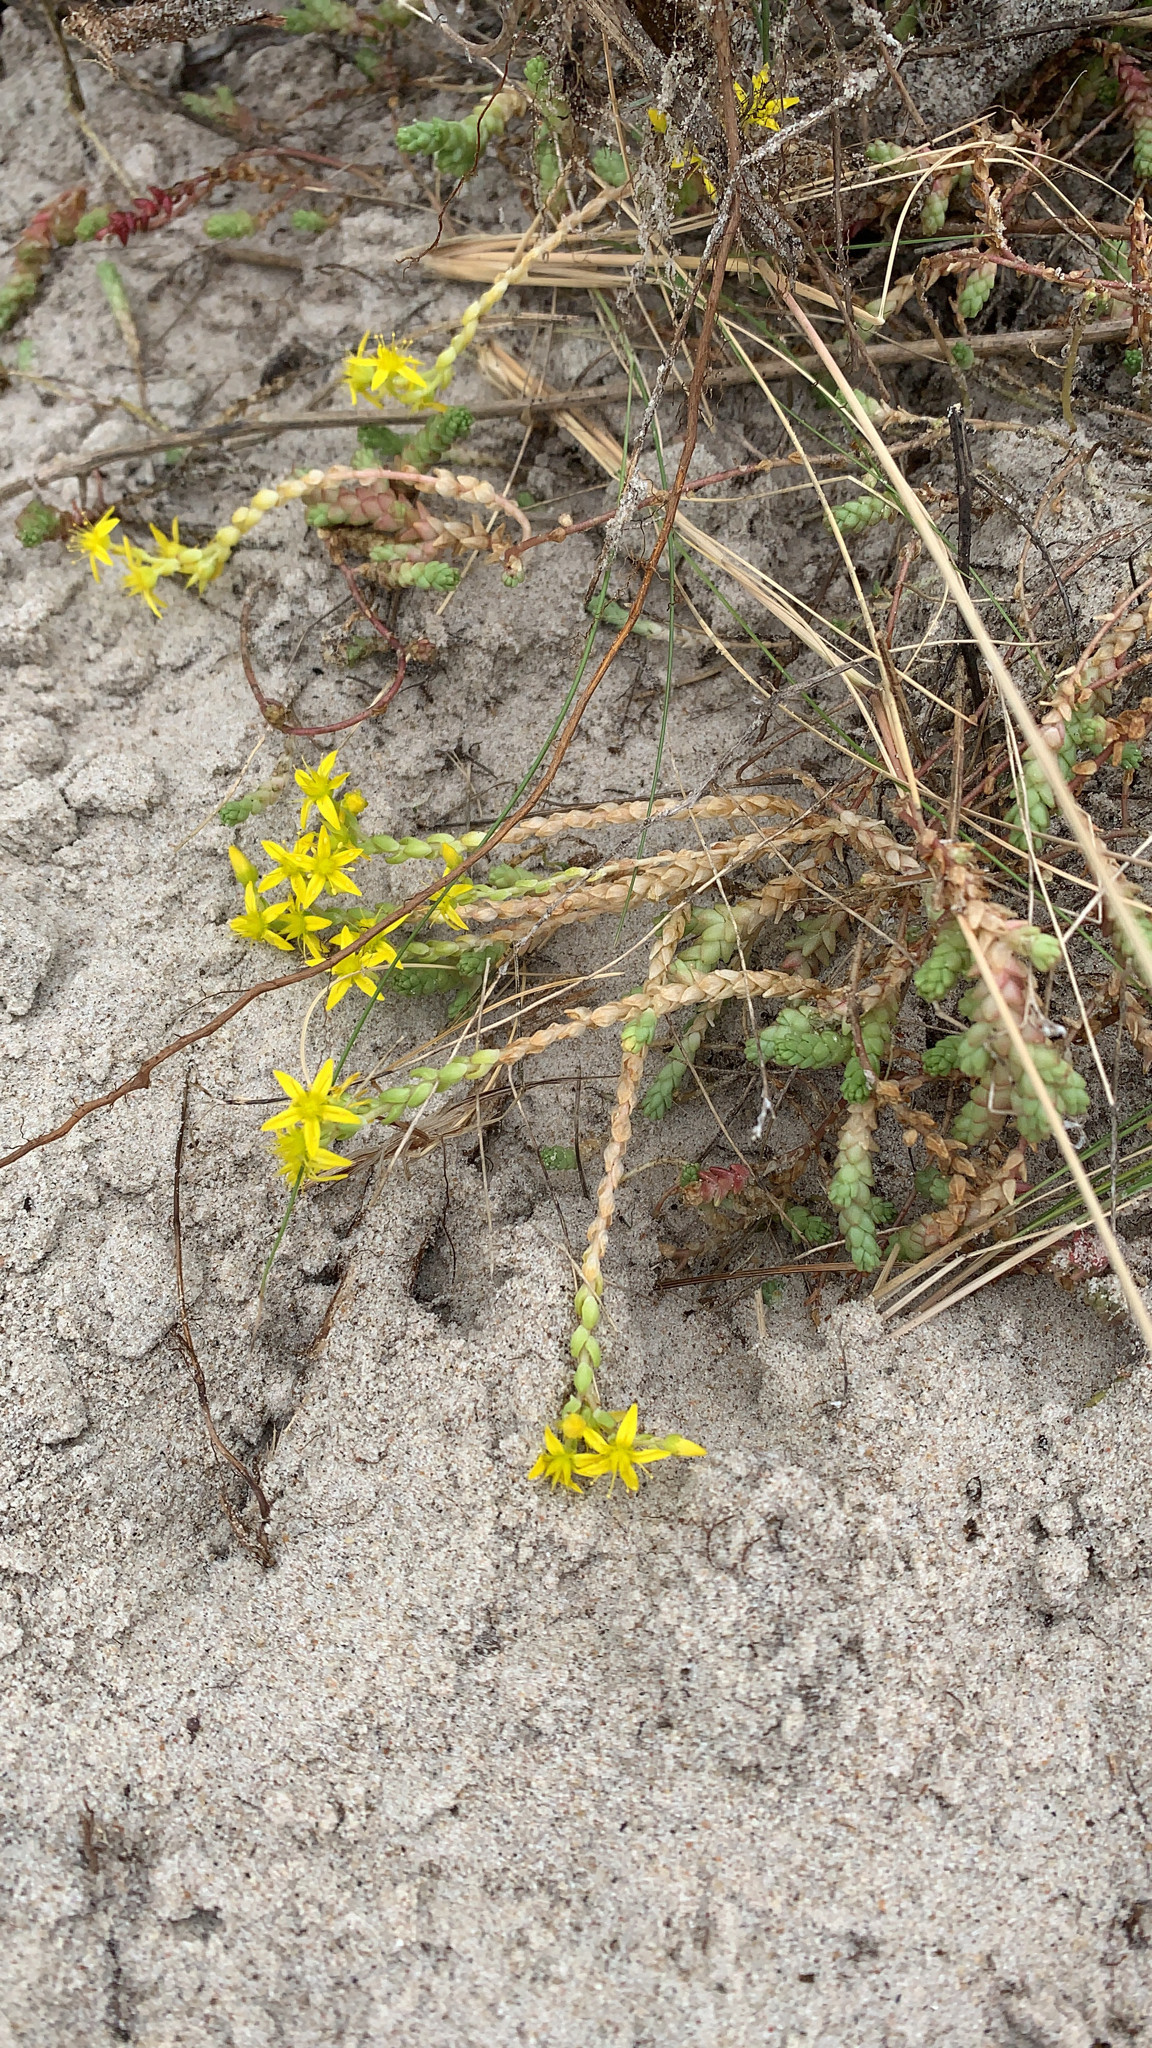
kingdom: Plantae
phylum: Tracheophyta
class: Magnoliopsida
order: Saxifragales
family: Crassulaceae
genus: Sedum
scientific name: Sedum acre
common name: Biting stonecrop
